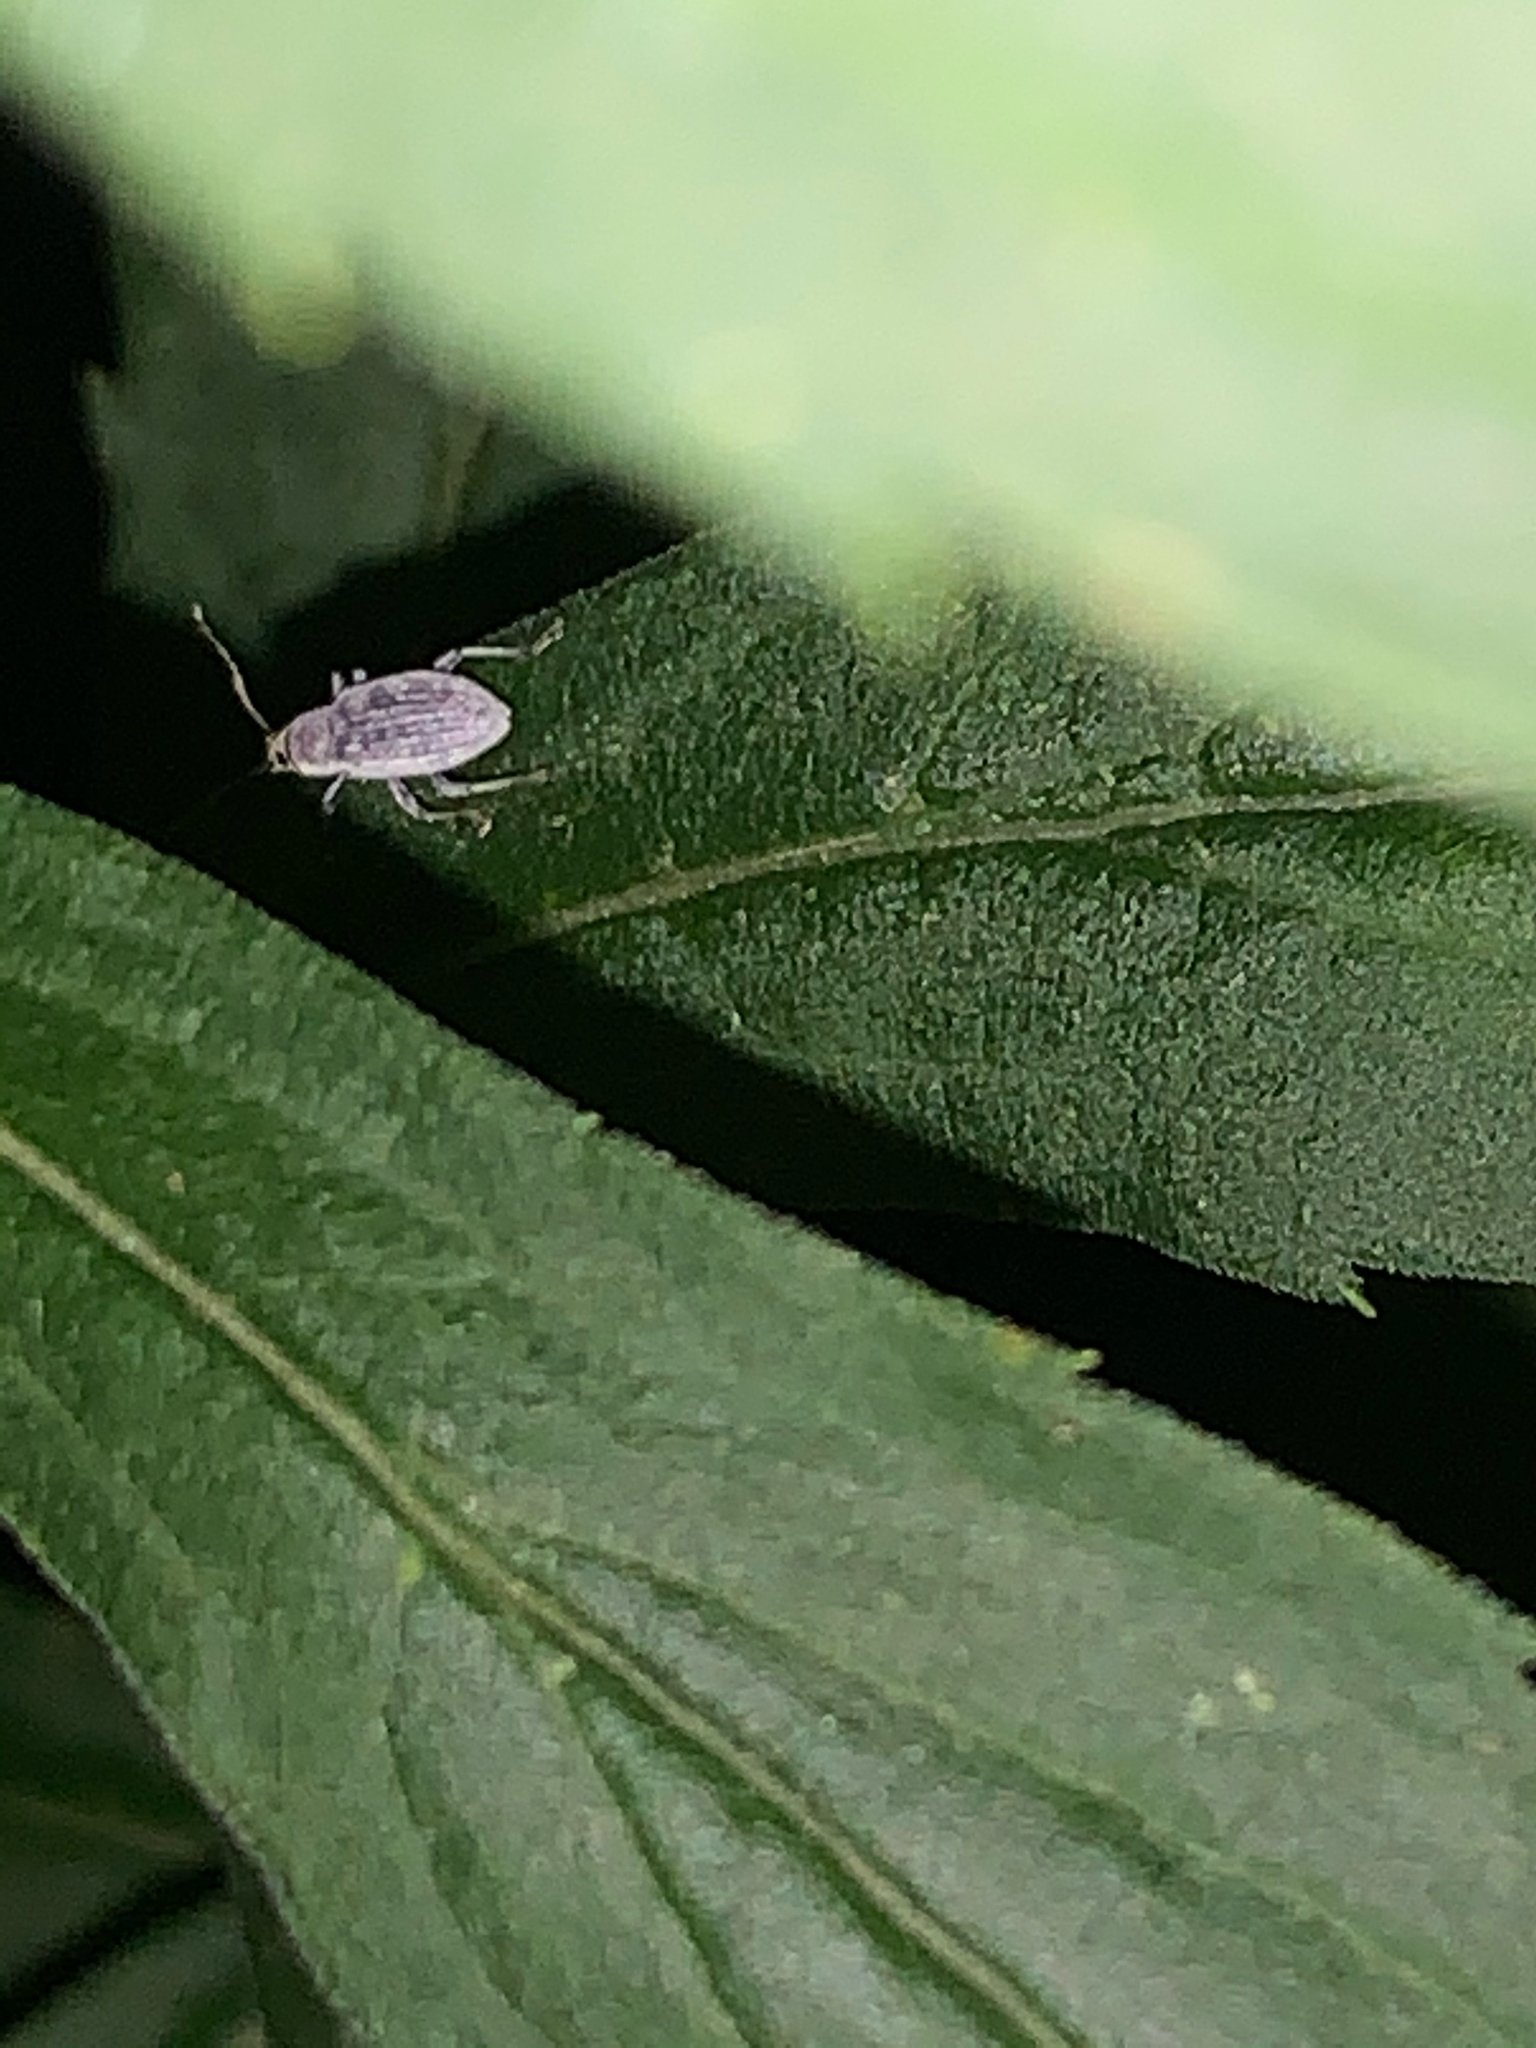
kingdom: Animalia
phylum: Arthropoda
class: Insecta
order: Coleoptera
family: Curculionidae
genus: Cyrtepistomus
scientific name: Cyrtepistomus castaneus
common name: Weevil
